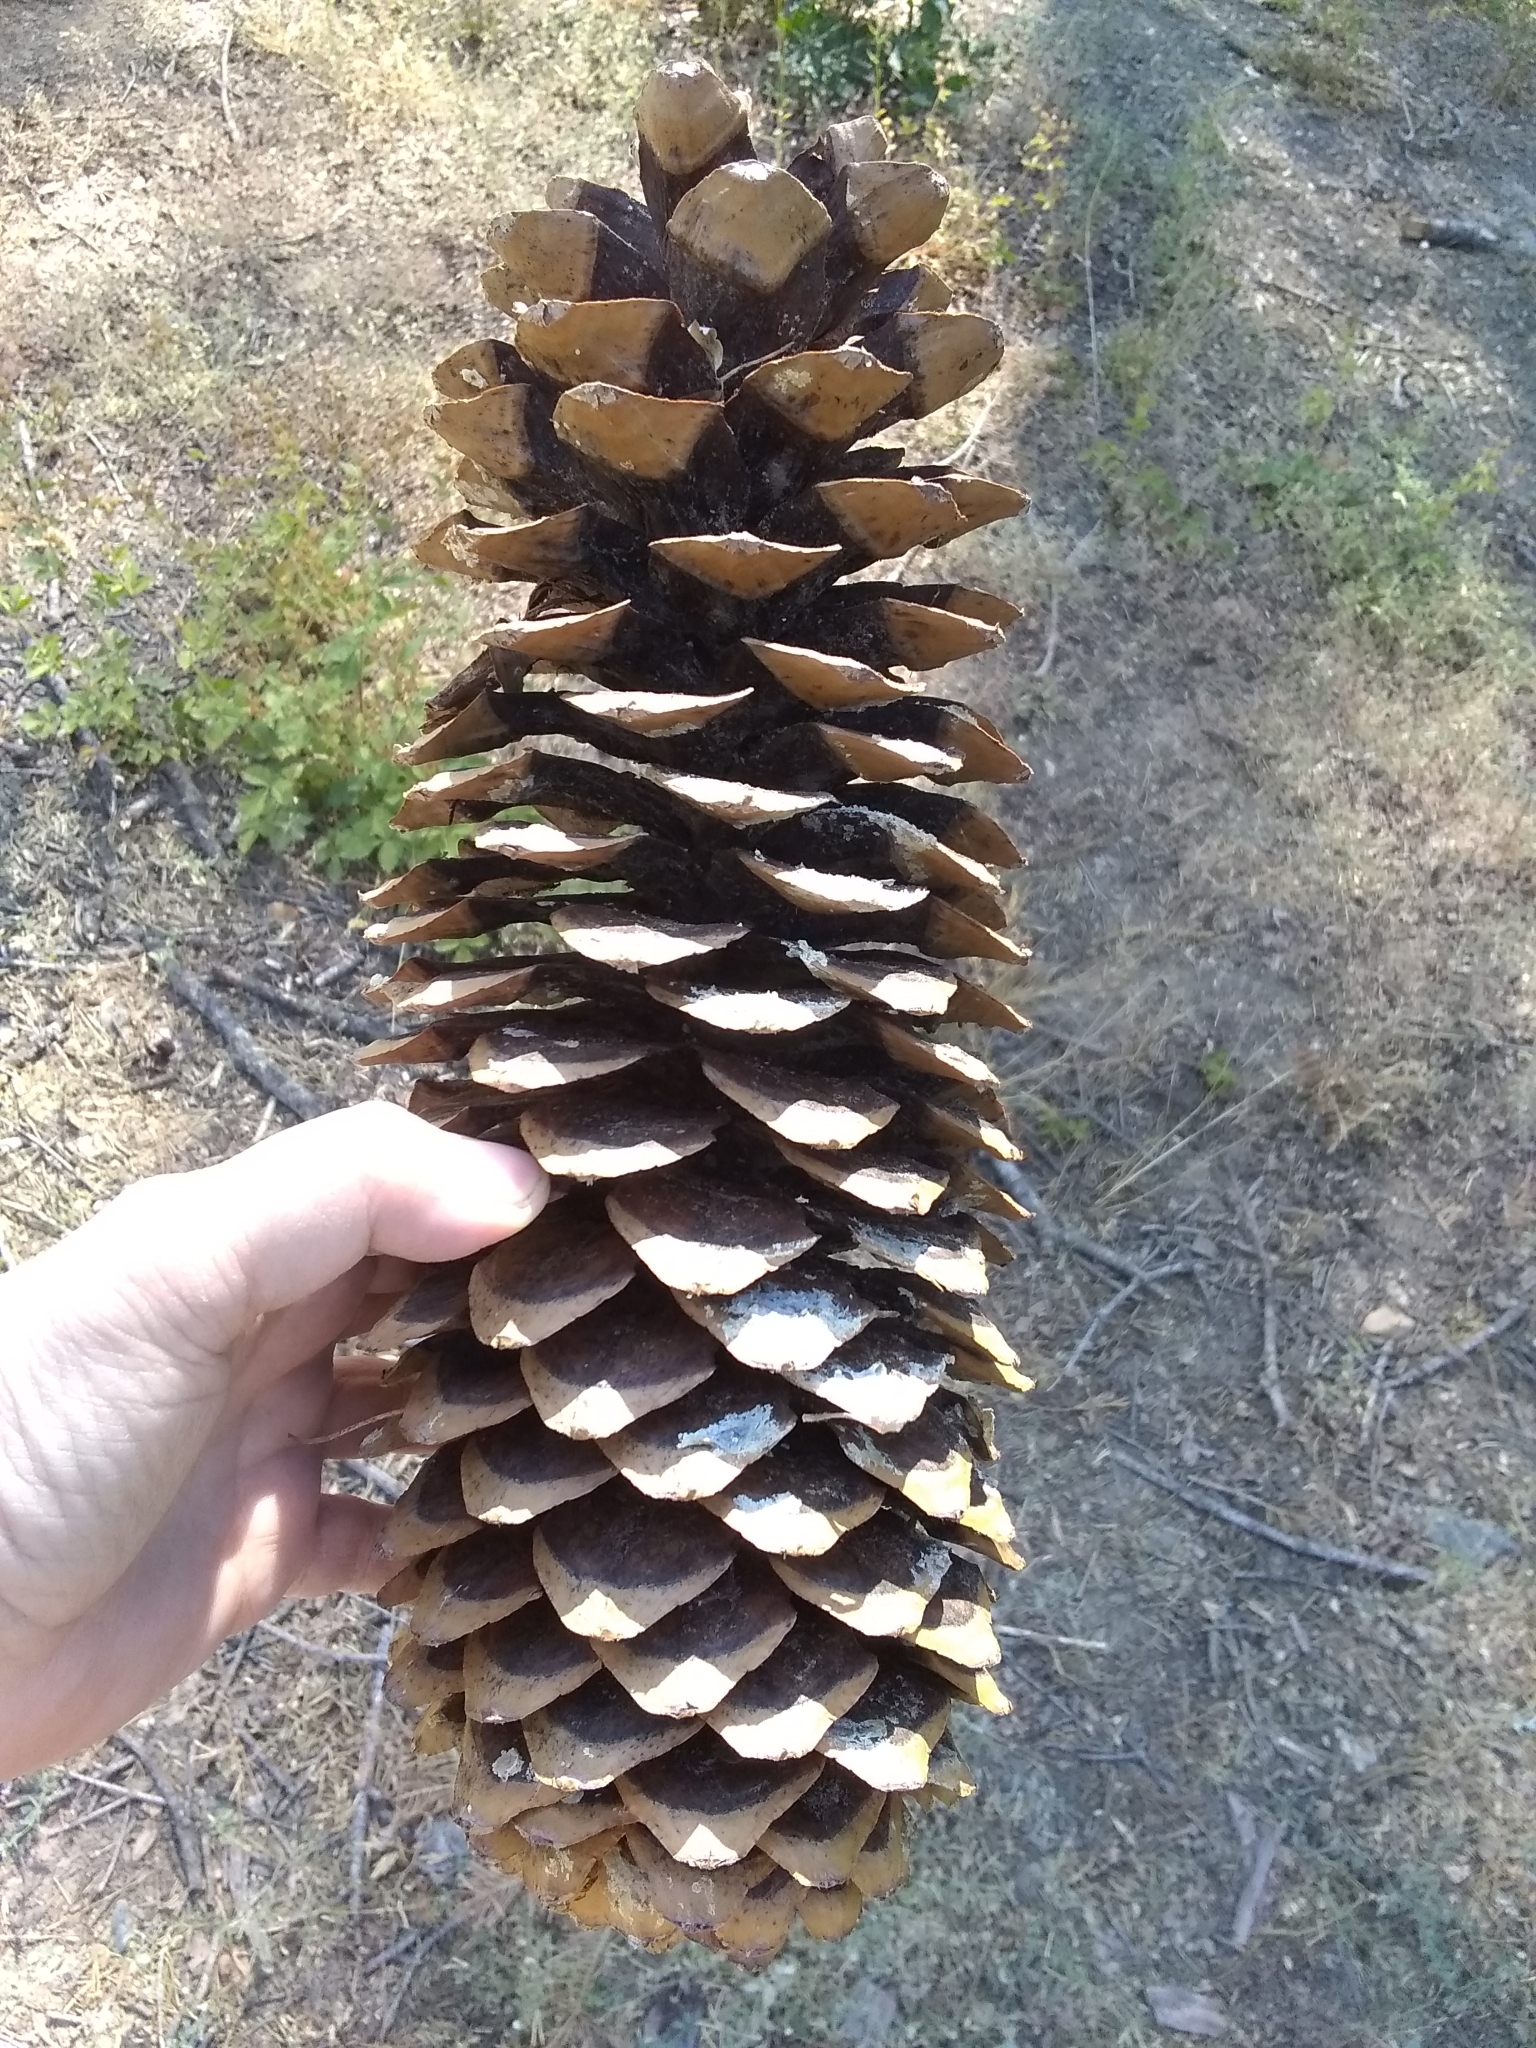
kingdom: Plantae
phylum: Tracheophyta
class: Pinopsida
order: Pinales
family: Pinaceae
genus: Pinus
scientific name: Pinus lambertiana
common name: Sugar pine
